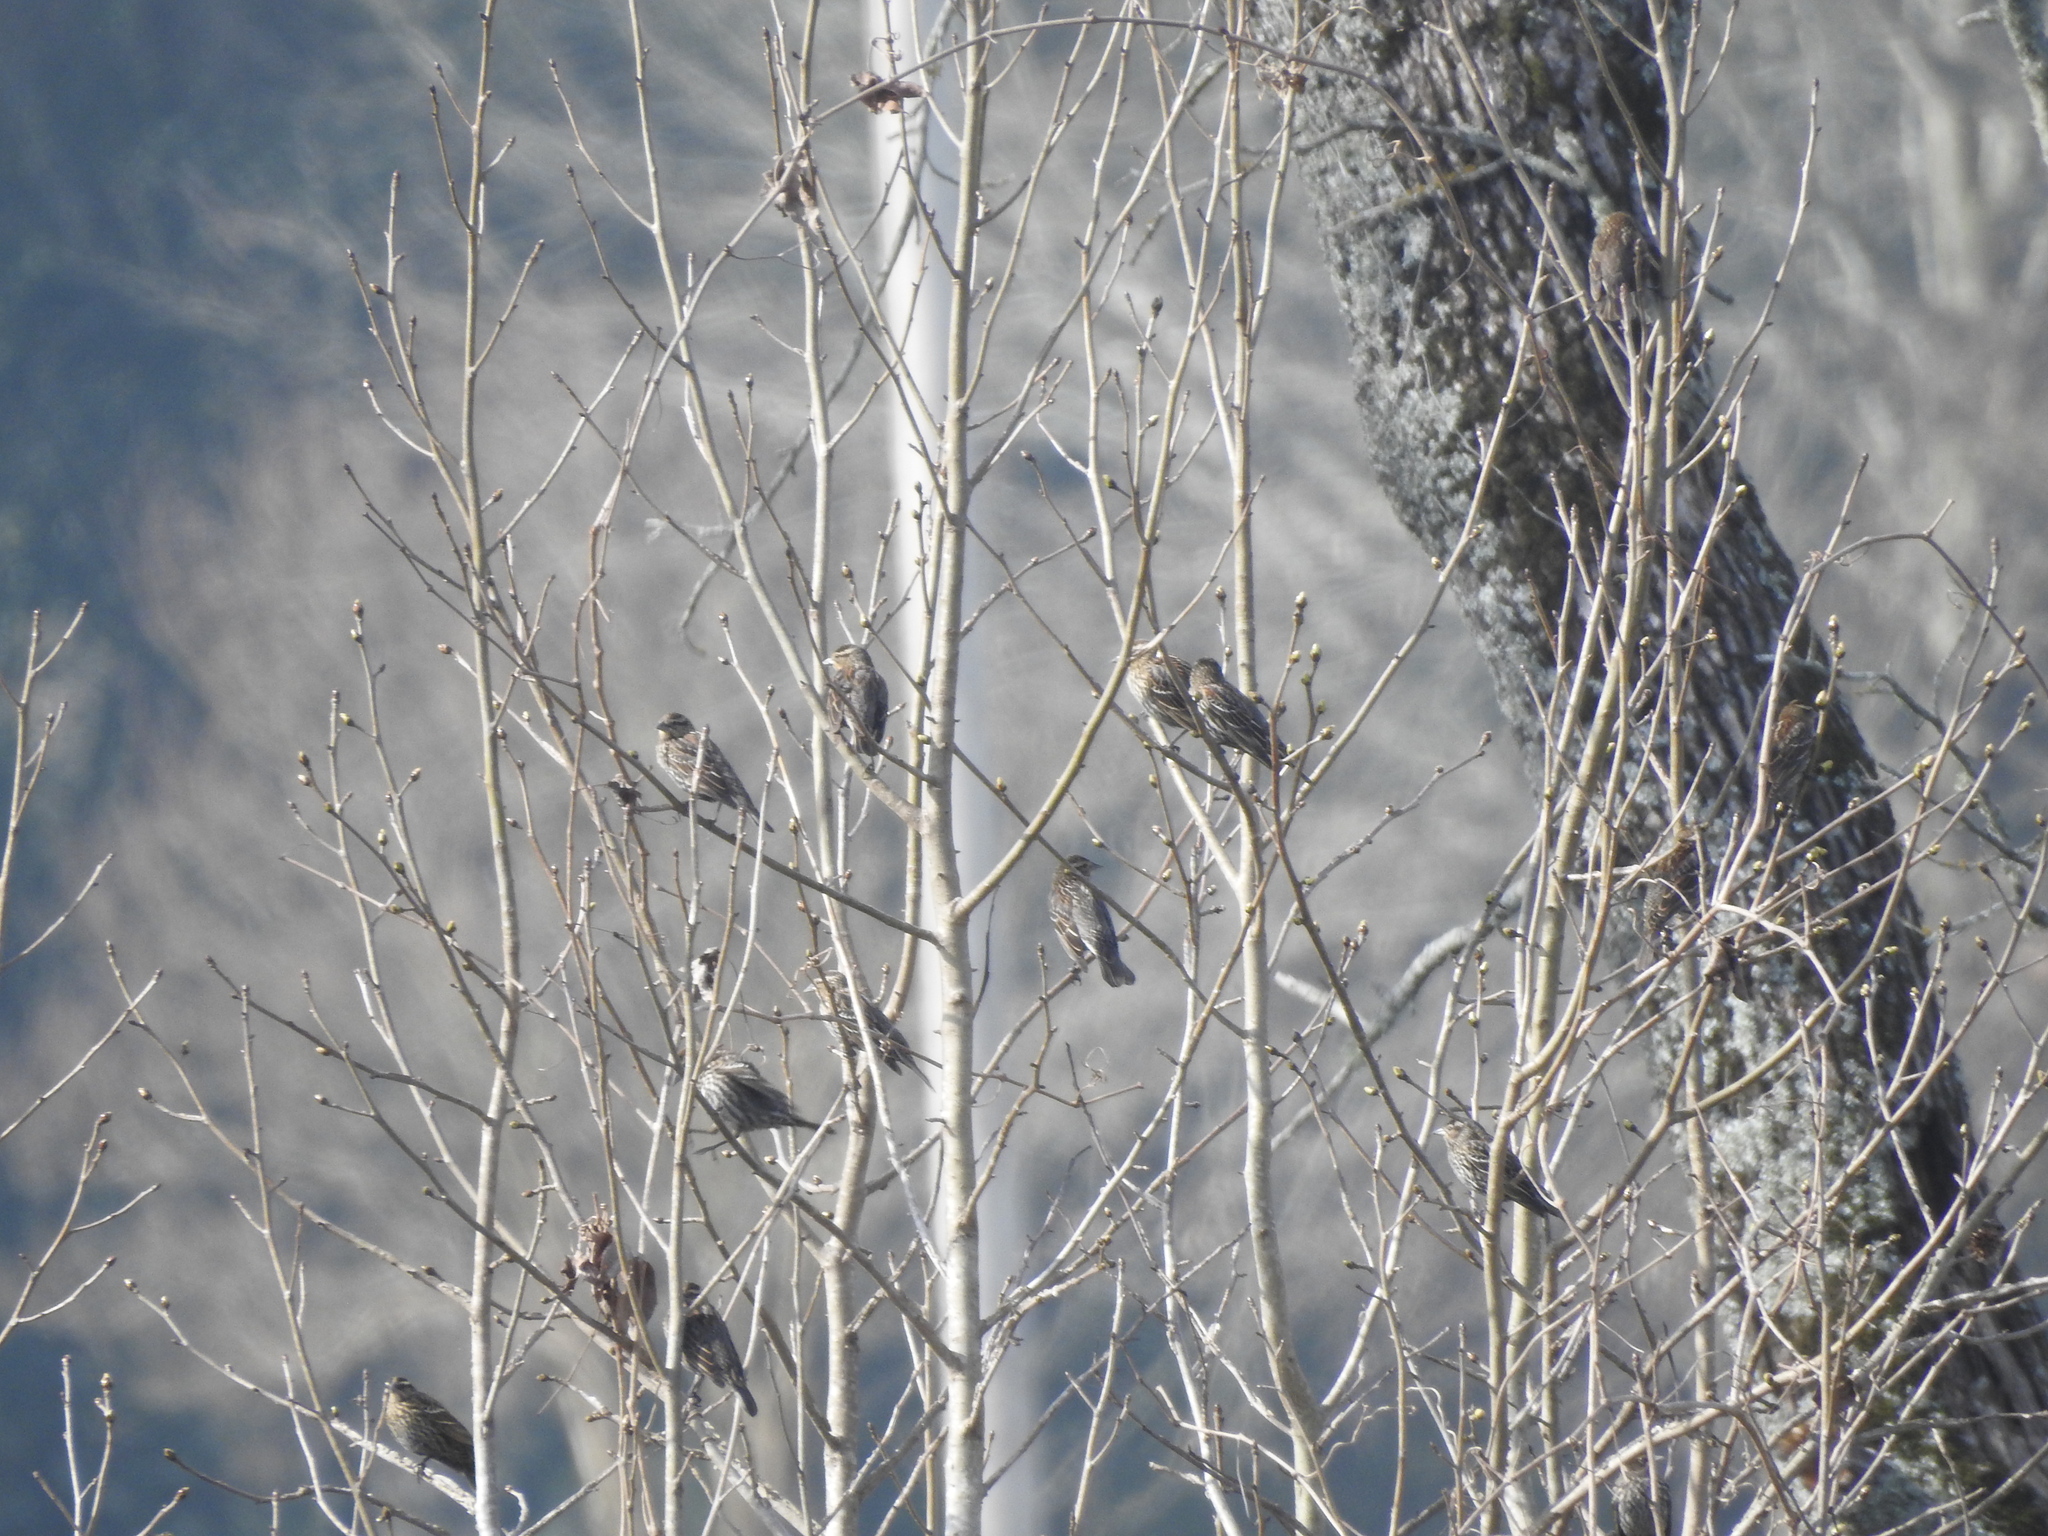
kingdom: Animalia
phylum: Chordata
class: Aves
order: Passeriformes
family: Icteridae
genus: Agelaius
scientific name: Agelaius phoeniceus
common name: Red-winged blackbird
